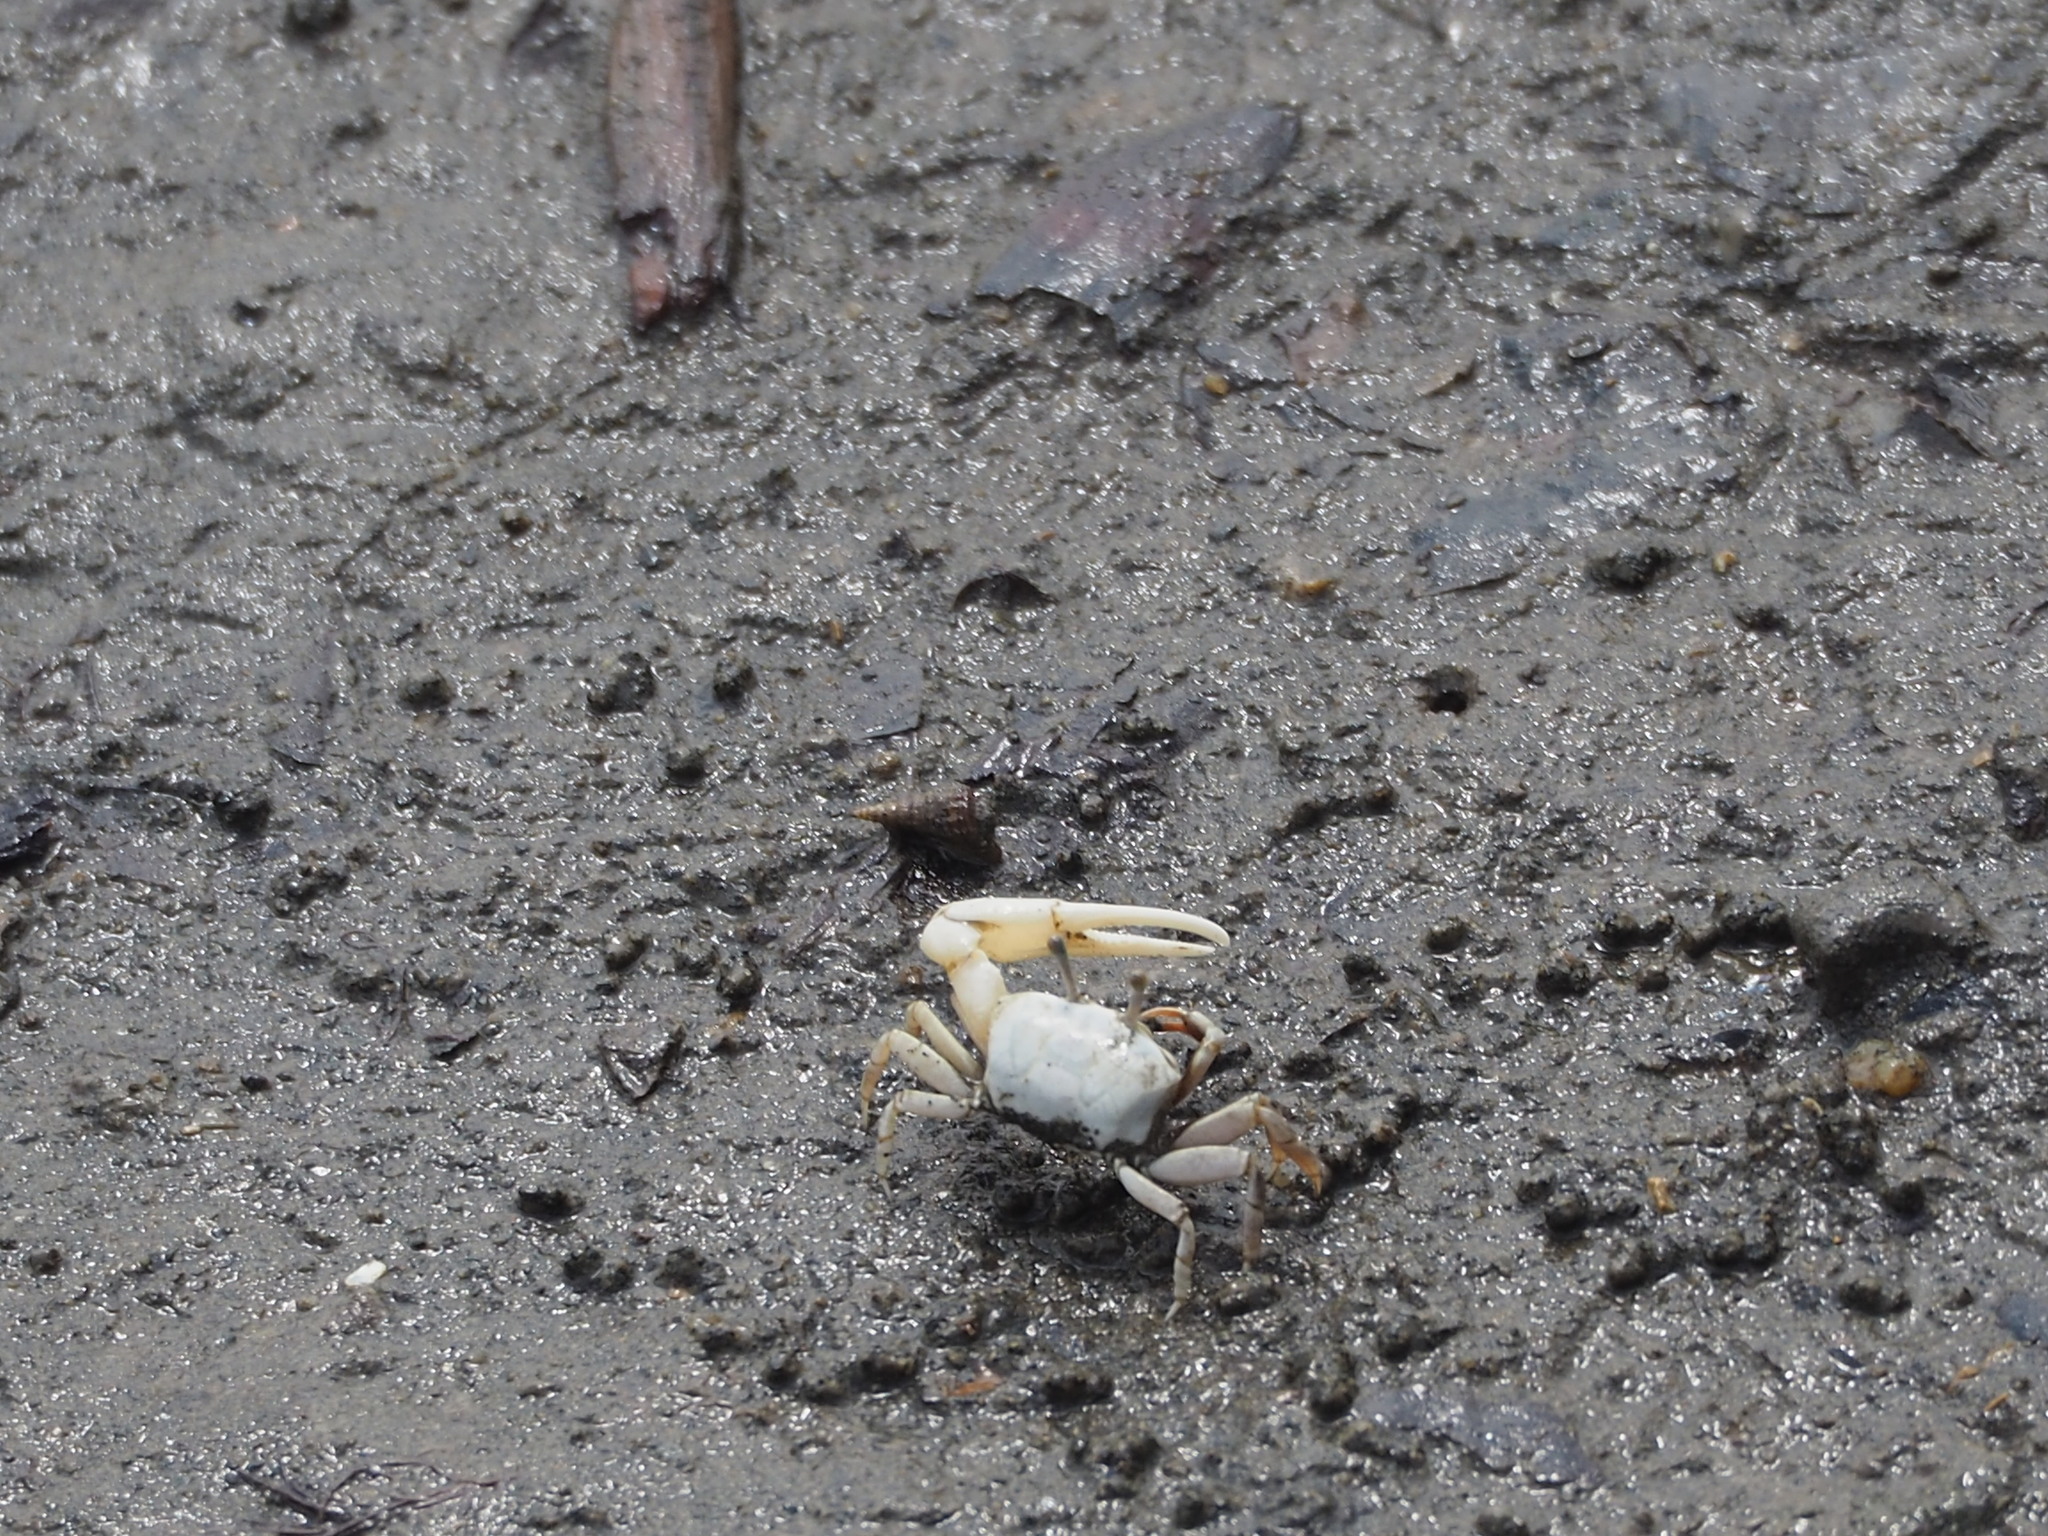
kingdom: Animalia
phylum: Arthropoda
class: Malacostraca
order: Decapoda
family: Ocypodidae
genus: Austruca
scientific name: Austruca lactea
